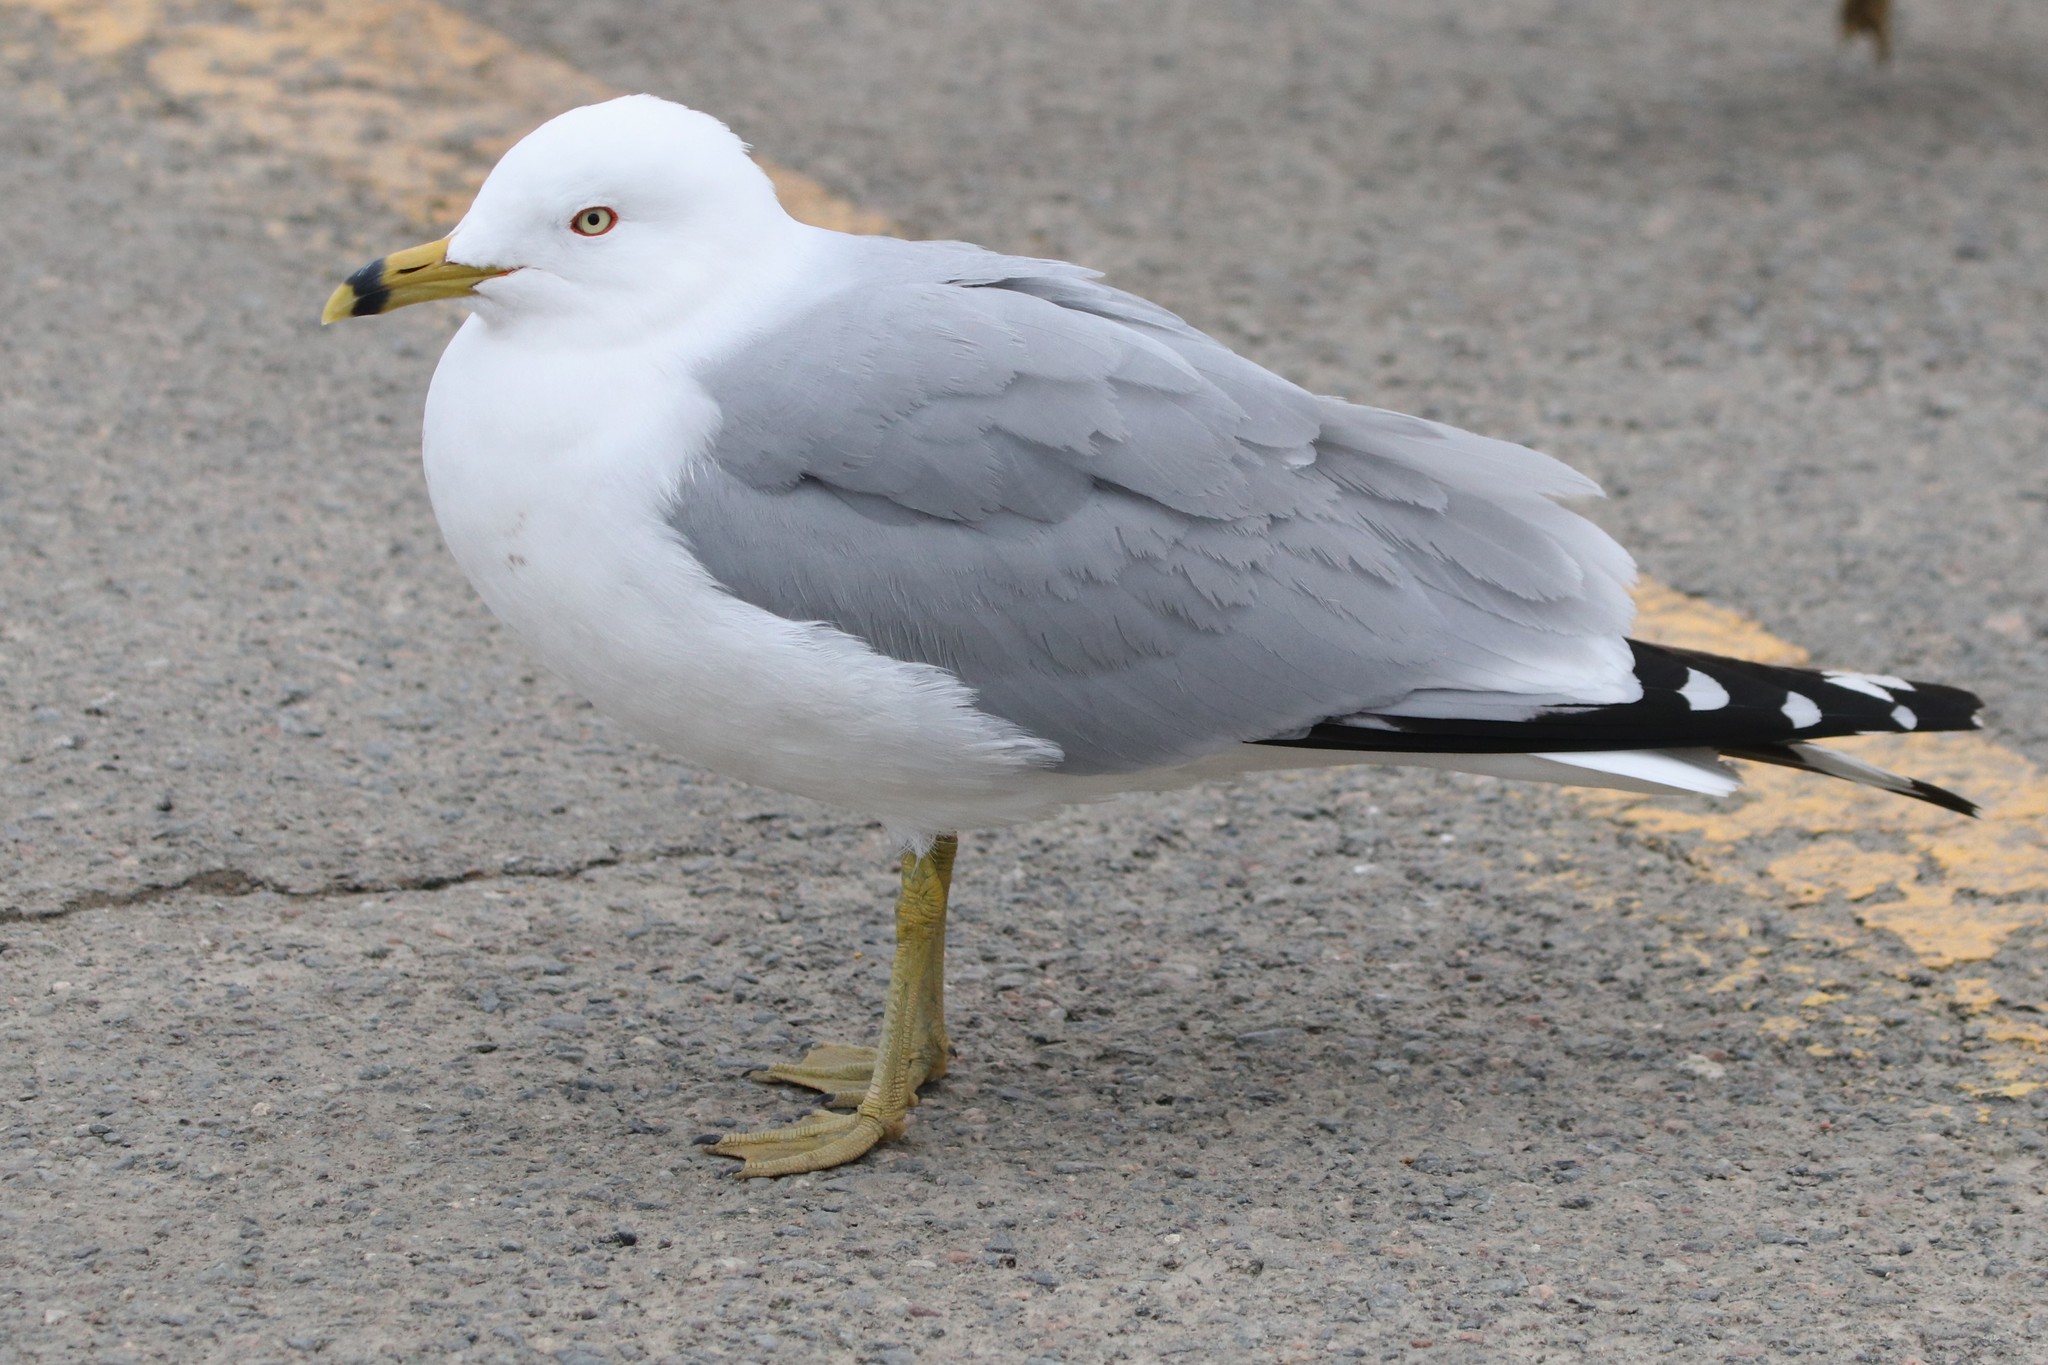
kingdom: Animalia
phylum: Chordata
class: Aves
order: Charadriiformes
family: Laridae
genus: Larus
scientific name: Larus delawarensis
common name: Ring-billed gull
